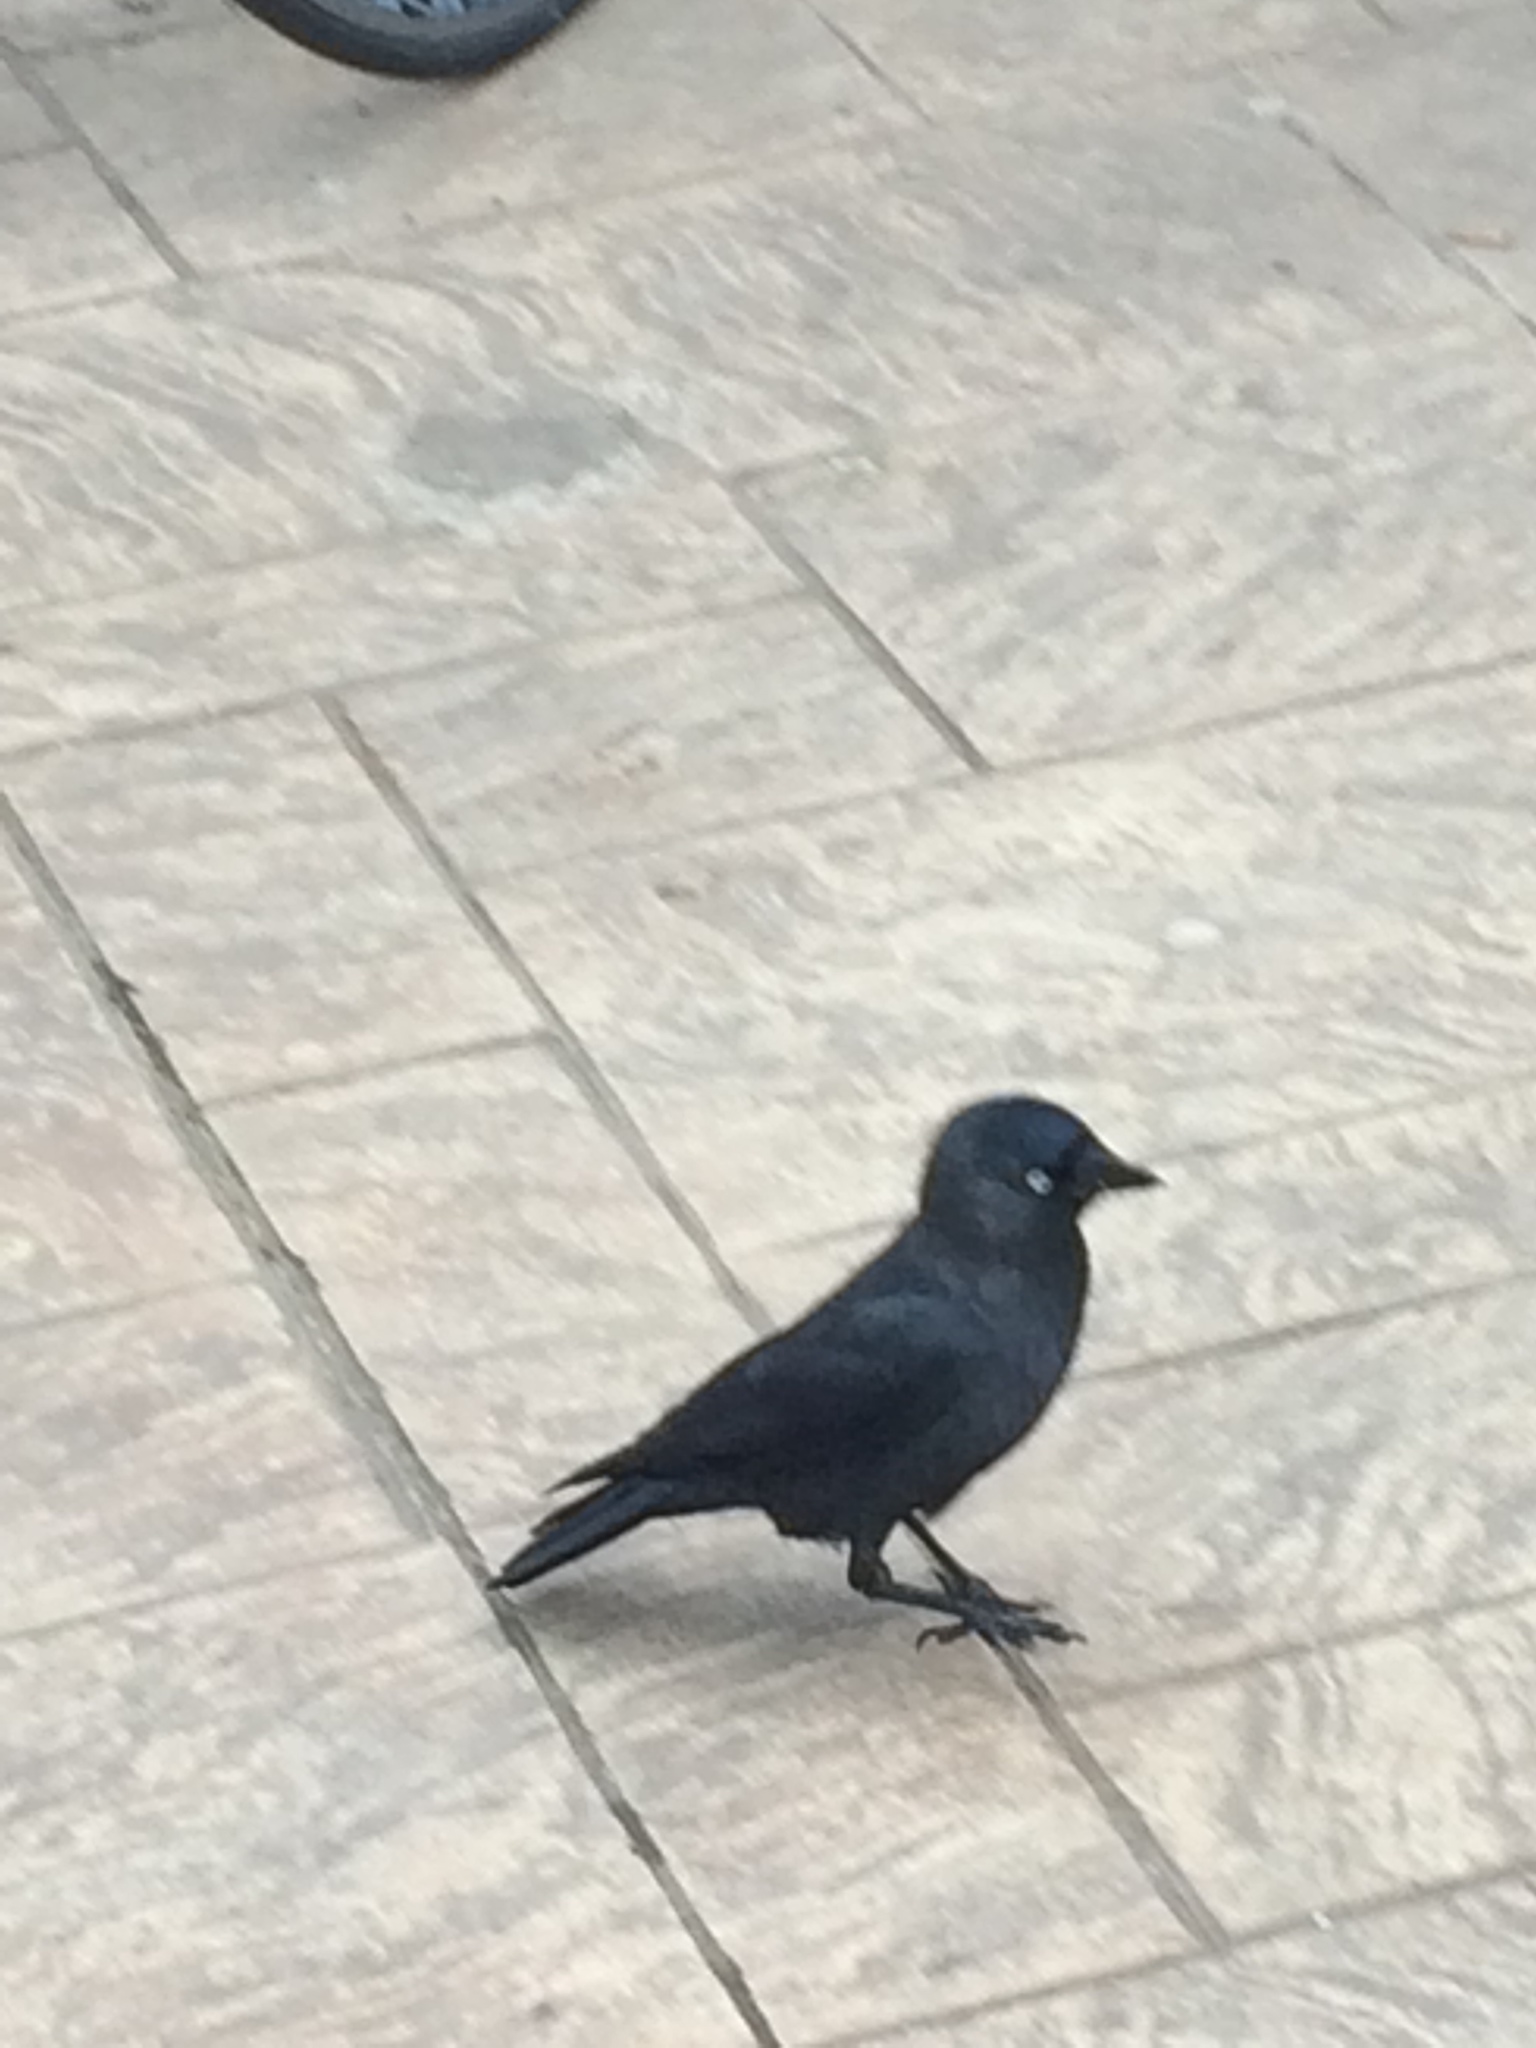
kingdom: Animalia
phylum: Chordata
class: Aves
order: Passeriformes
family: Corvidae
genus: Coloeus
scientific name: Coloeus monedula
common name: Western jackdaw
